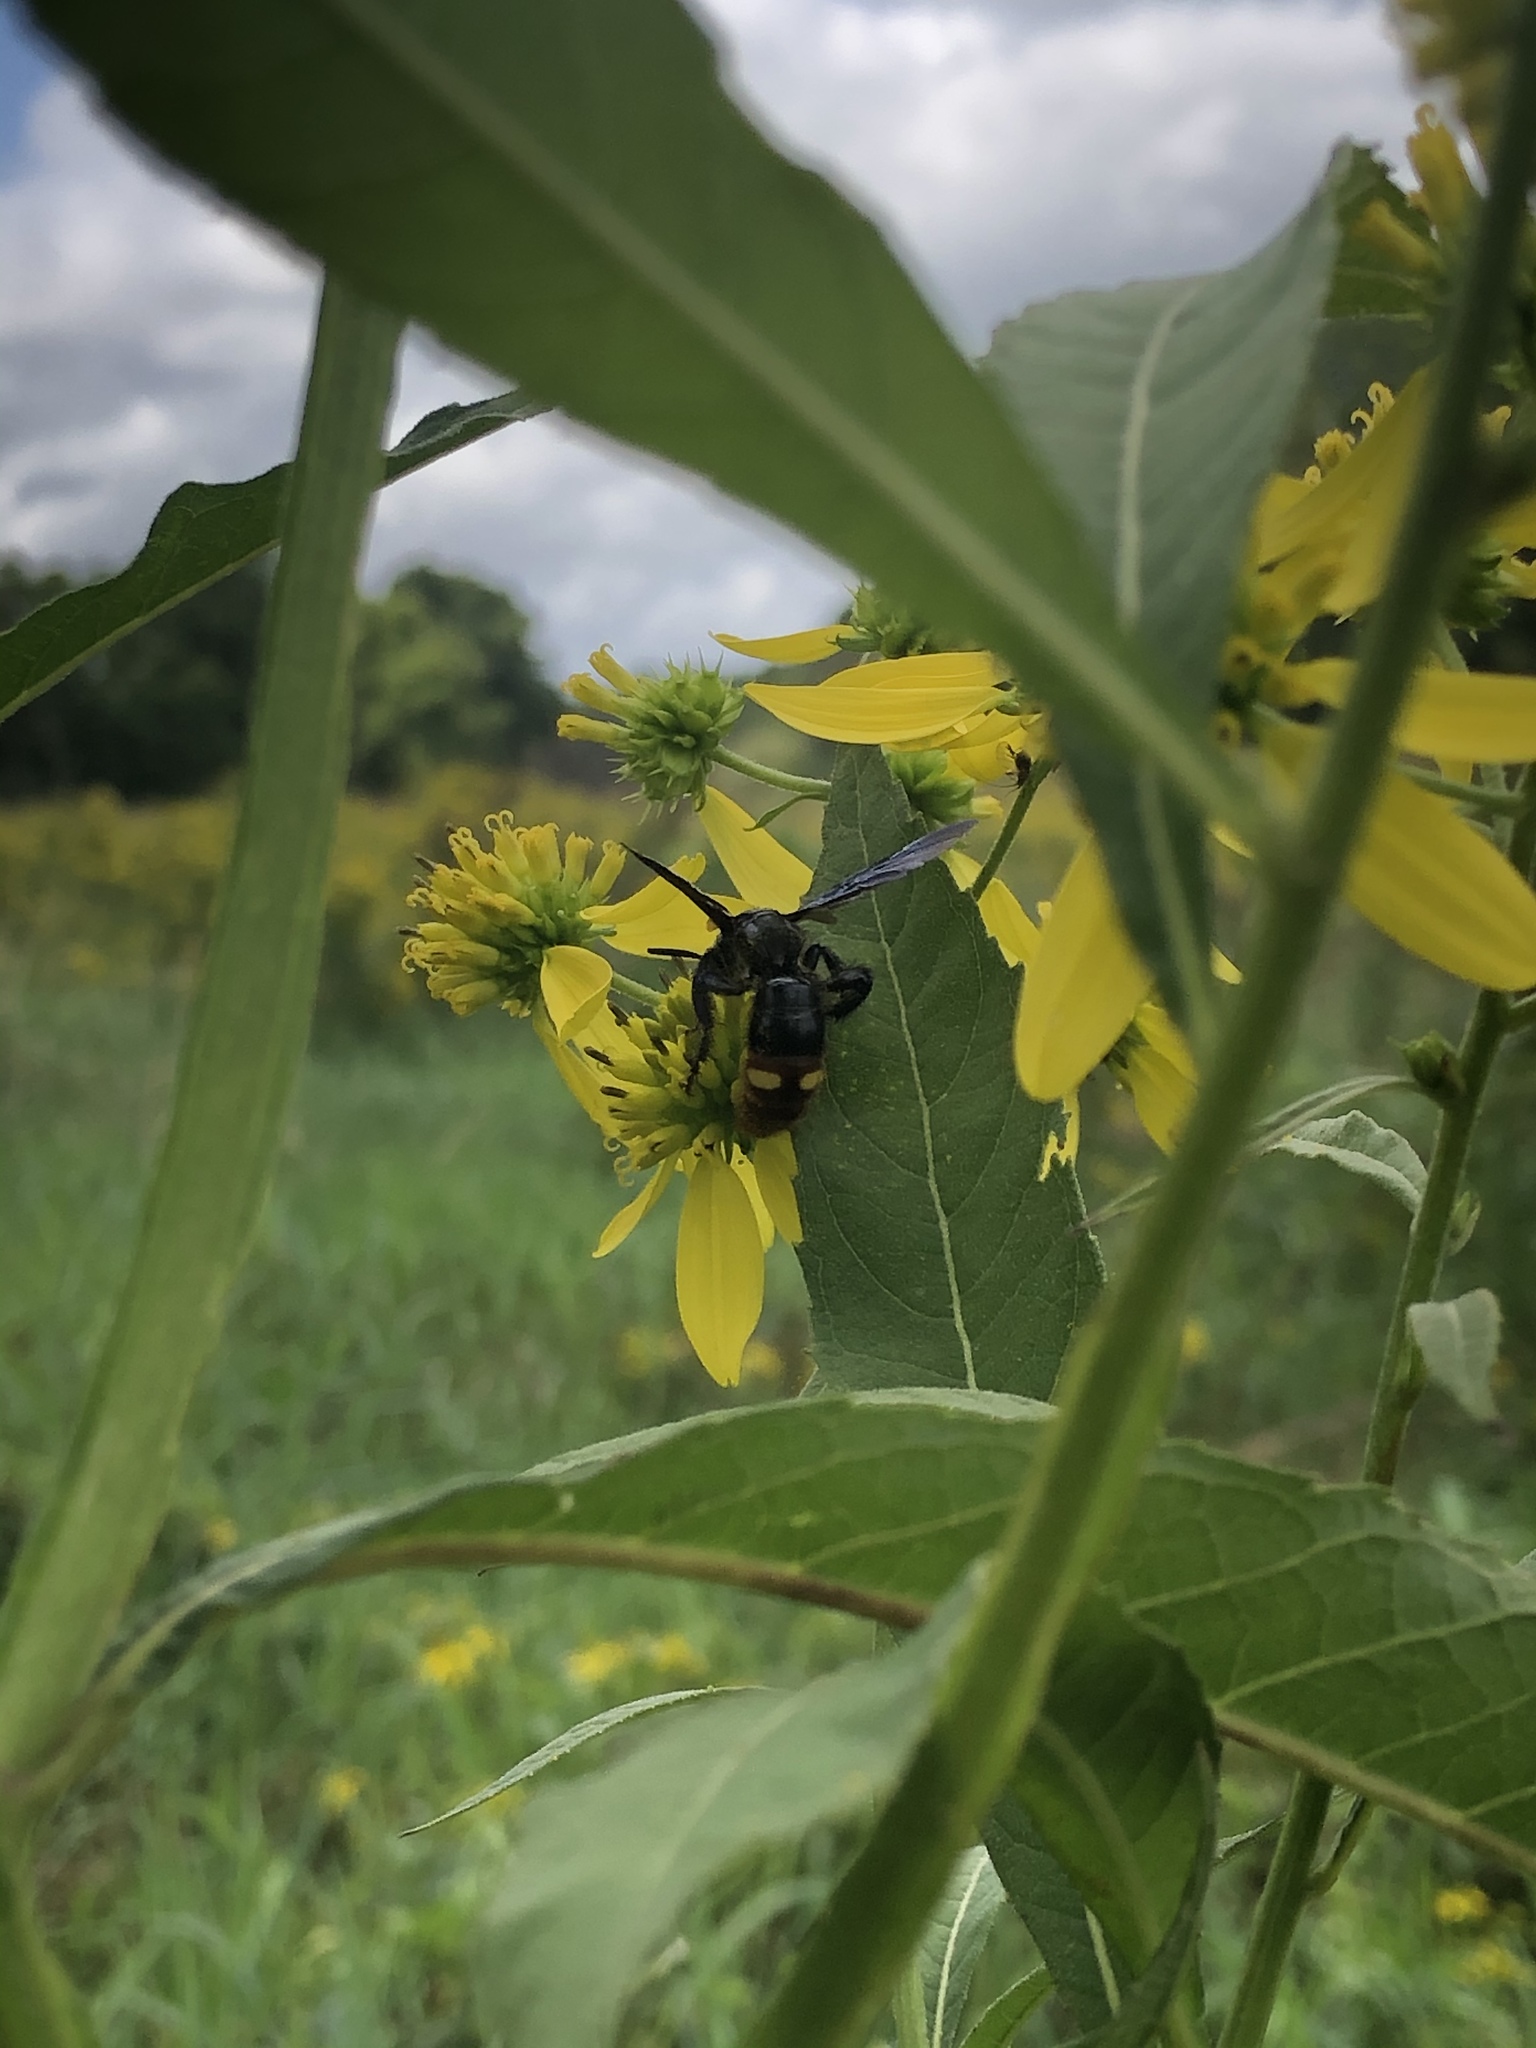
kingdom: Animalia
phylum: Arthropoda
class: Insecta
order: Hymenoptera
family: Scoliidae
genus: Scolia
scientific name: Scolia dubia
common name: Blue-winged scoliid wasp
